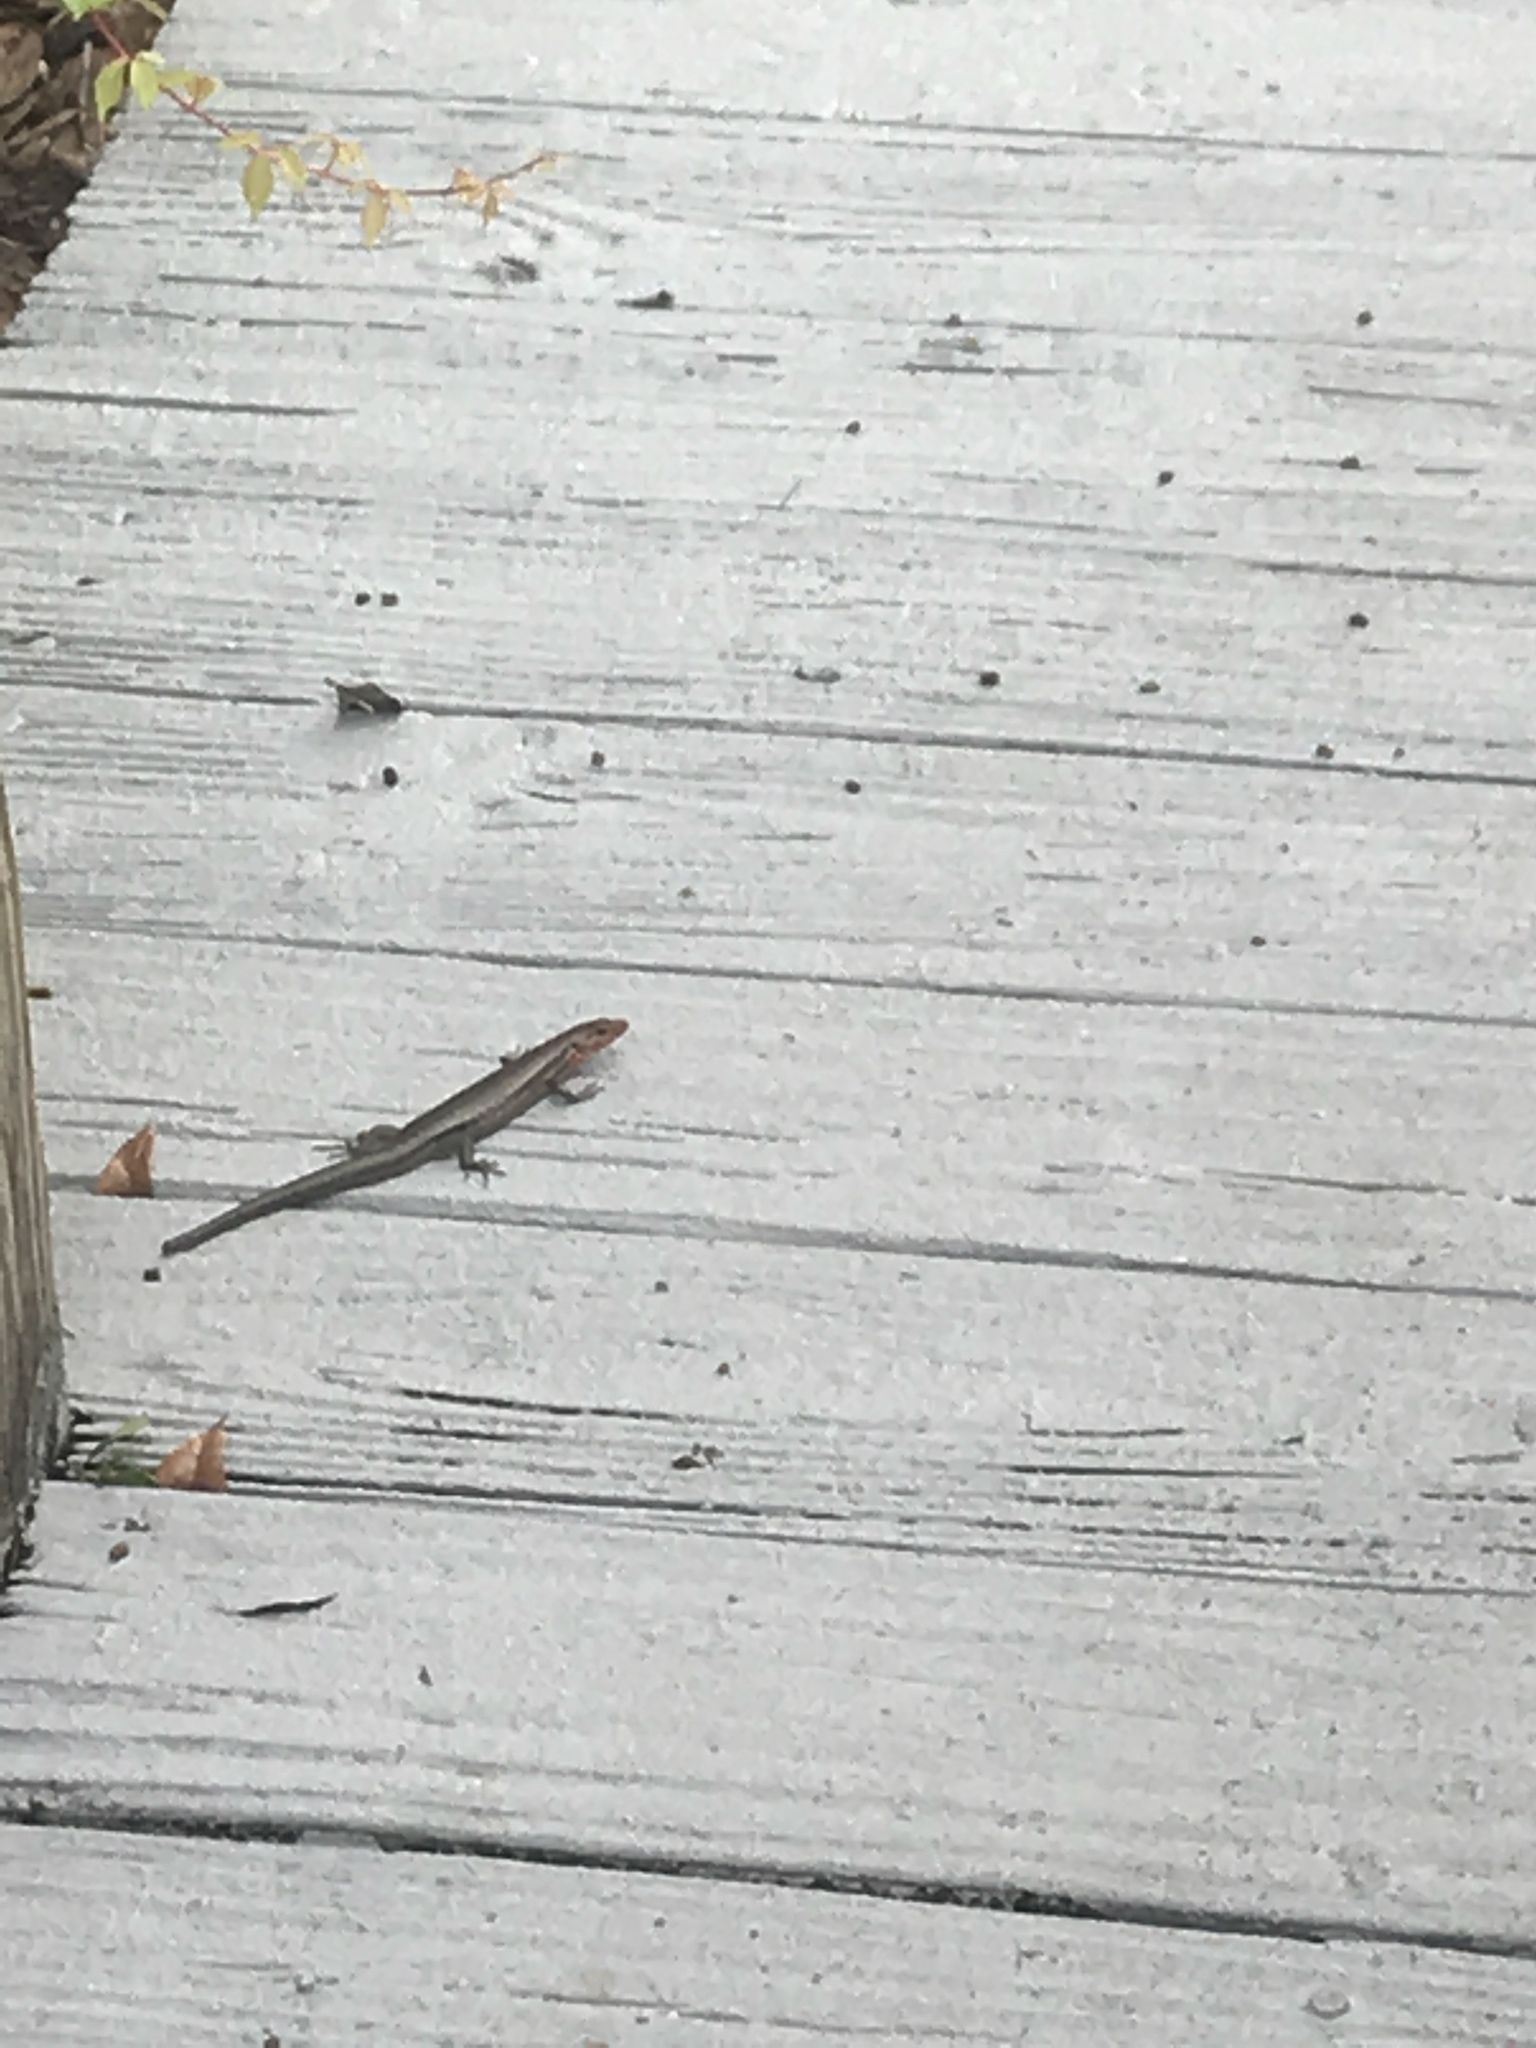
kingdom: Animalia
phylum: Chordata
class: Squamata
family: Scincidae
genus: Plestiodon
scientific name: Plestiodon
